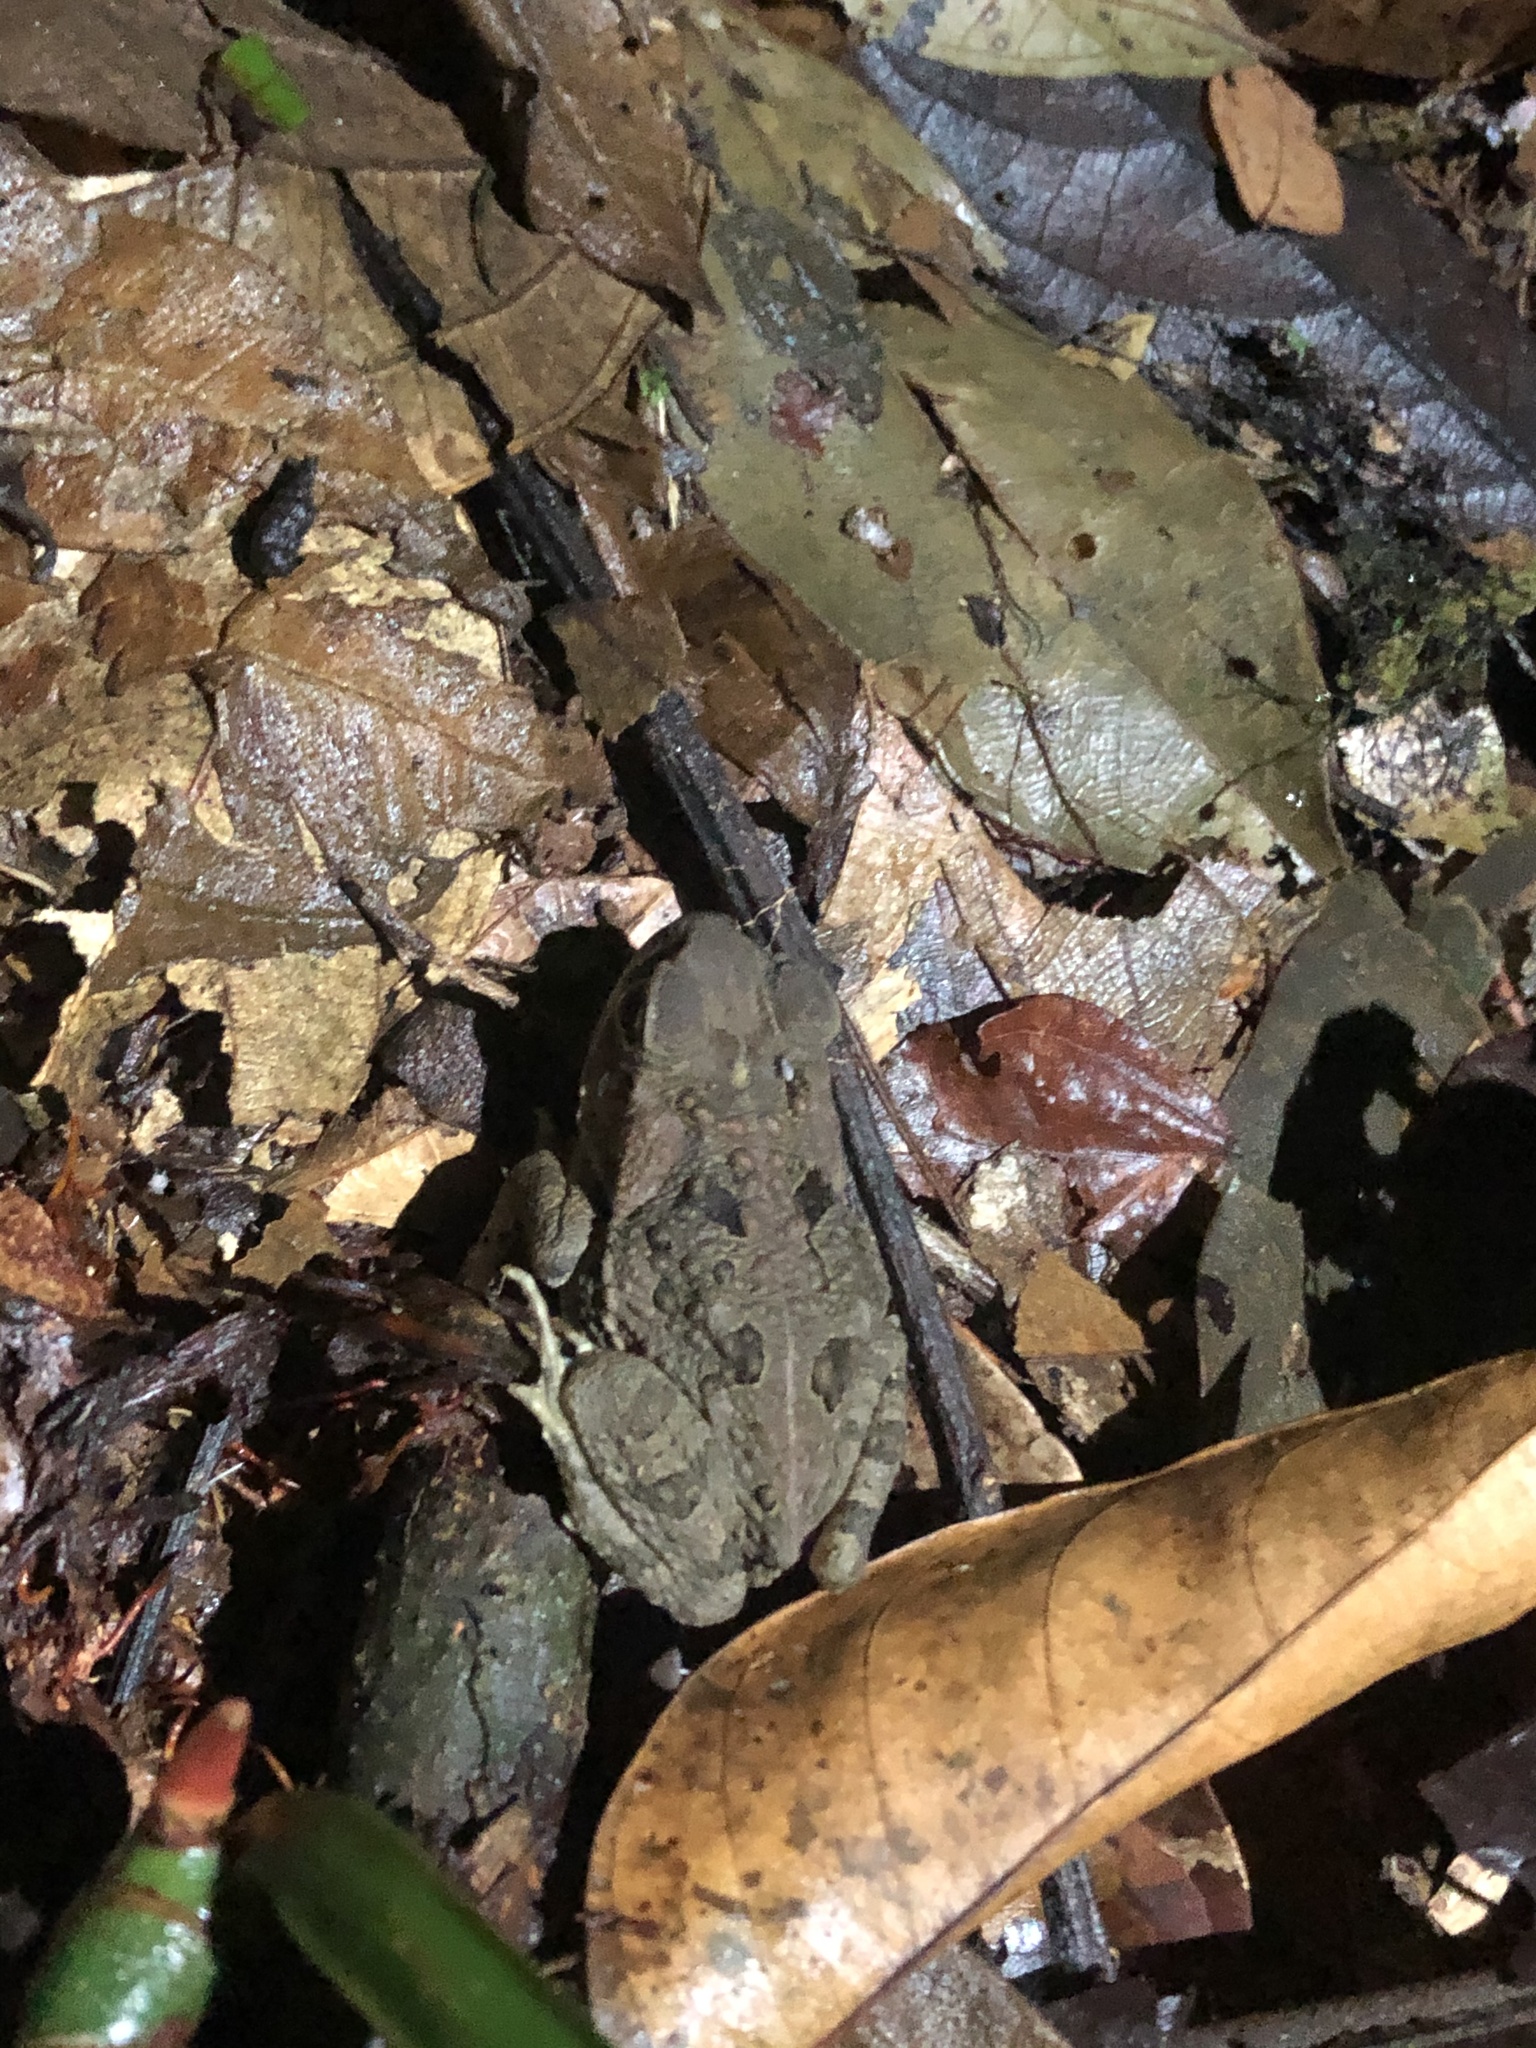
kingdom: Animalia
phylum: Chordata
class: Amphibia
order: Anura
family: Bufonidae
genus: Rhinella
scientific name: Rhinella marina
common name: Cane toad
